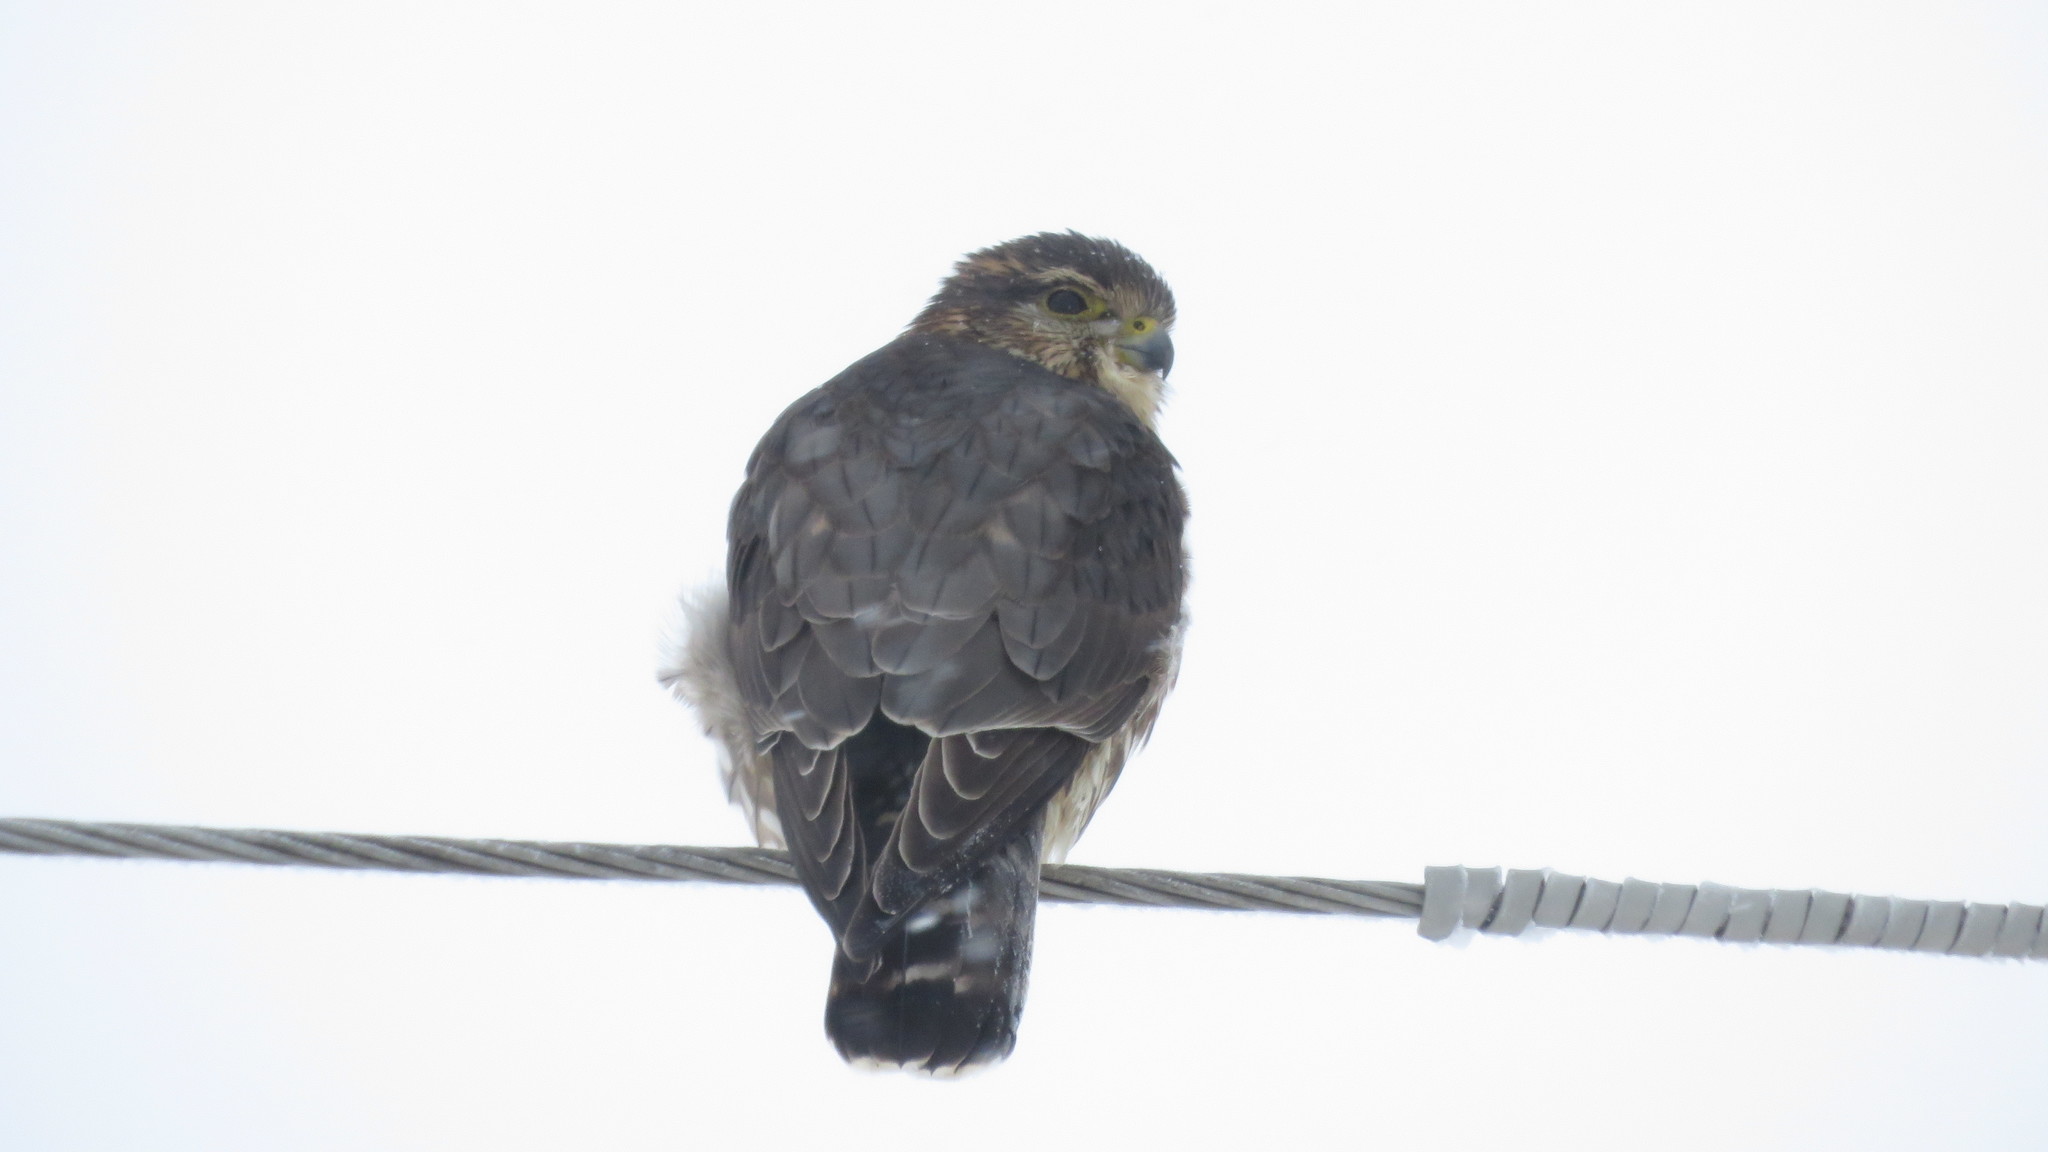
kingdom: Animalia
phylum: Chordata
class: Aves
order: Falconiformes
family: Falconidae
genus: Falco
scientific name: Falco columbarius
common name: Merlin
